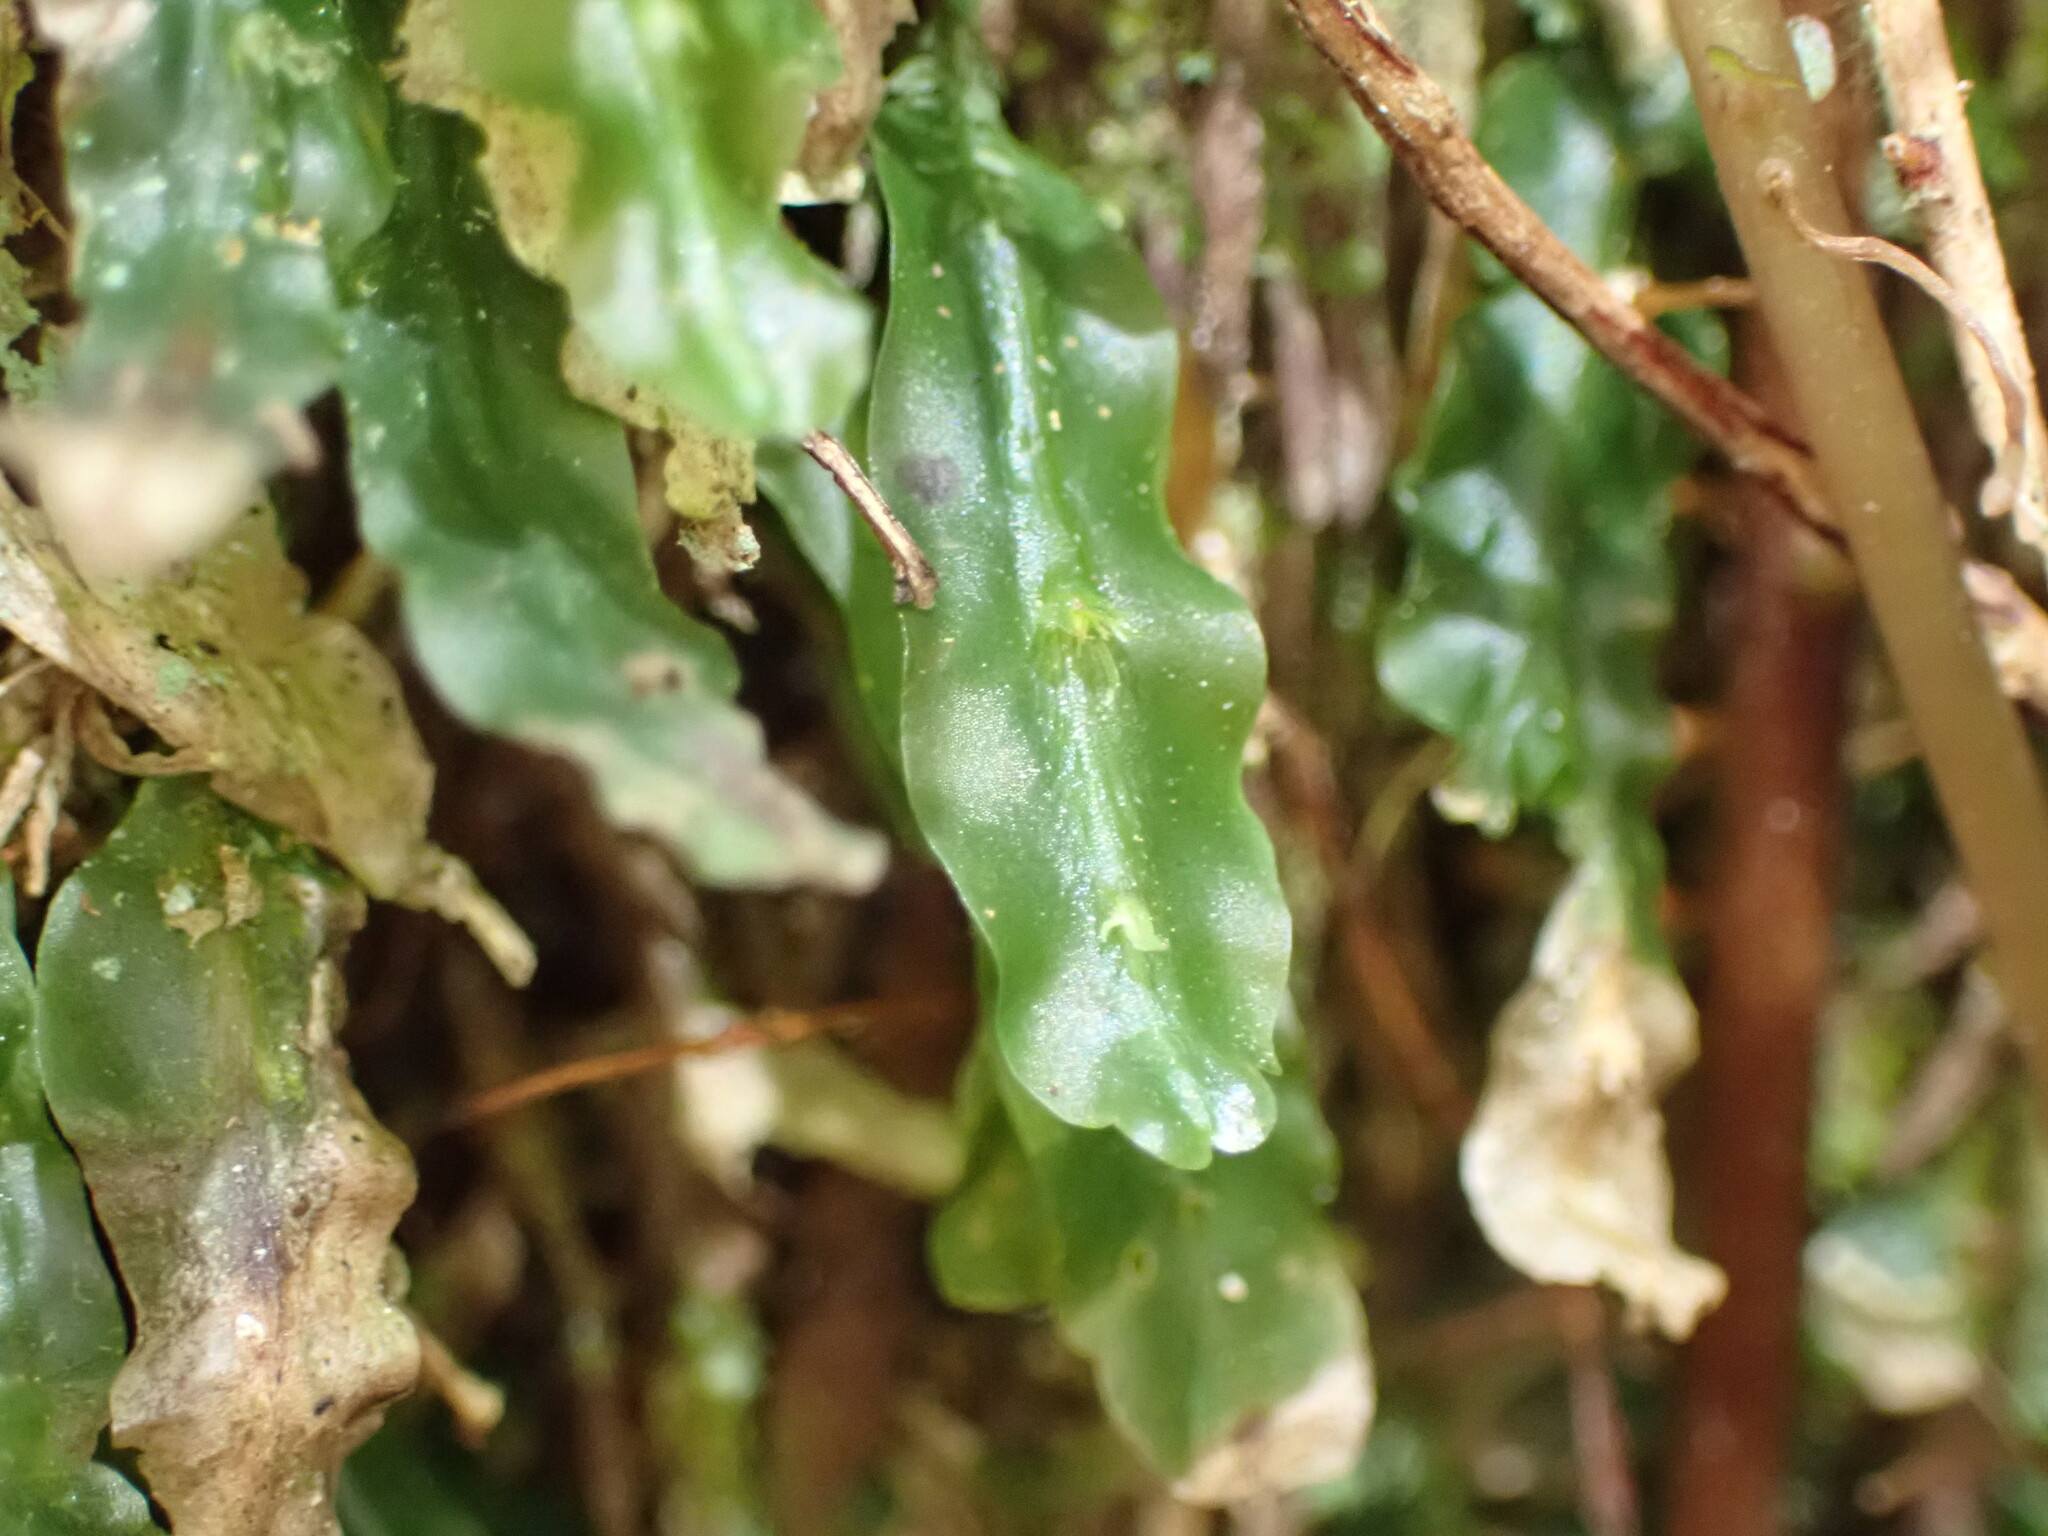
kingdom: Plantae
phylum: Marchantiophyta
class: Jungermanniopsida
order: Pallaviciniales
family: Pallaviciniaceae
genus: Symphyogyna
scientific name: Symphyogyna subsimplex
